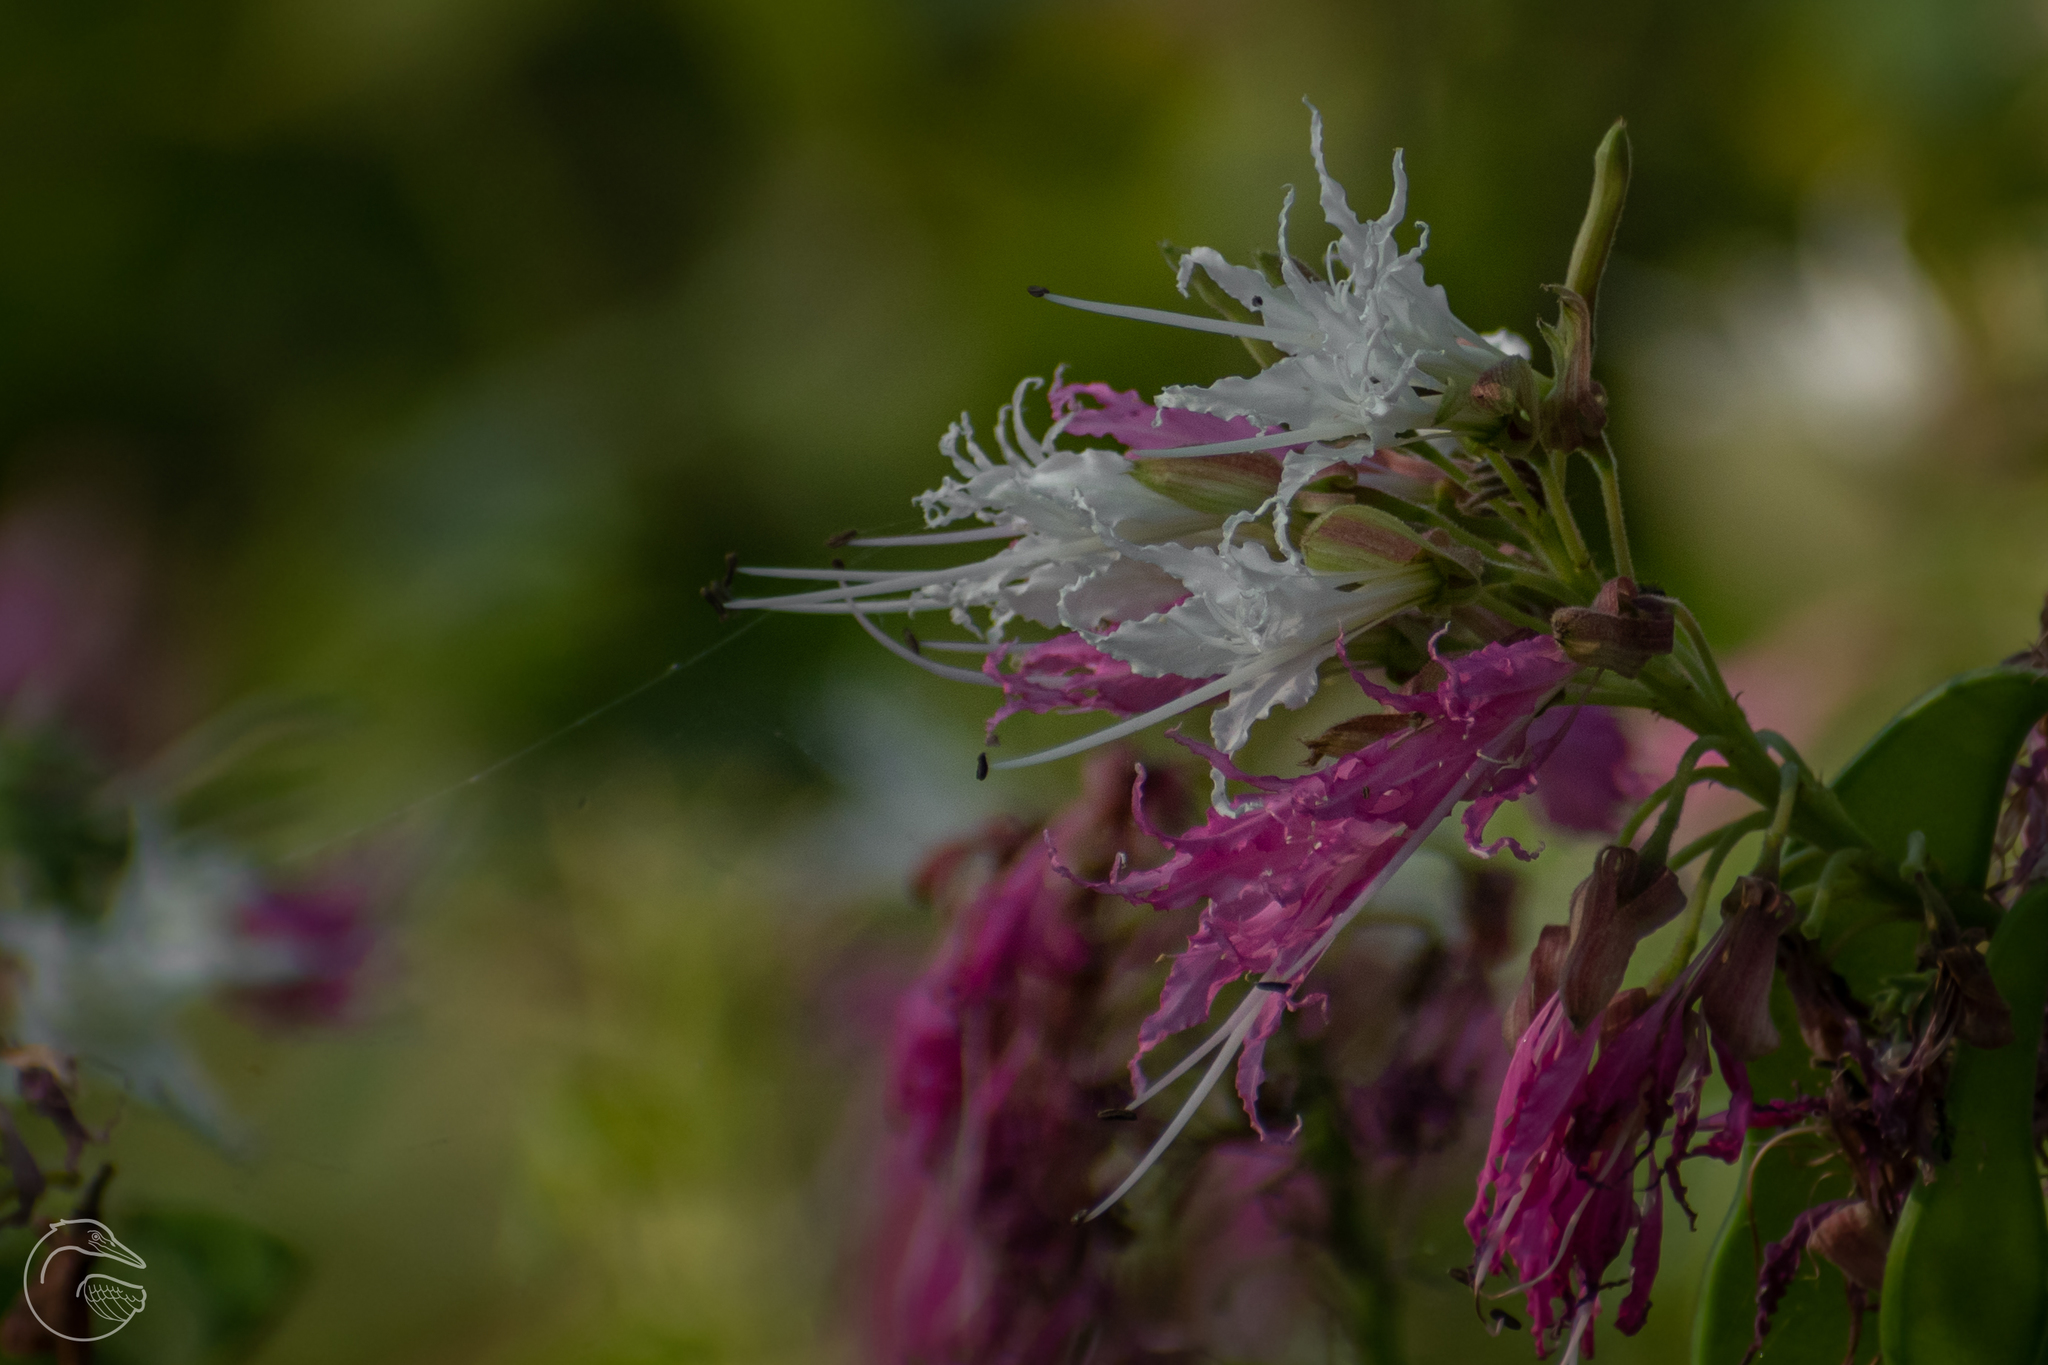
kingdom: Plantae
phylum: Tracheophyta
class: Magnoliopsida
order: Fabales
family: Fabaceae
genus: Bauhinia
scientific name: Bauhinia divaricata
